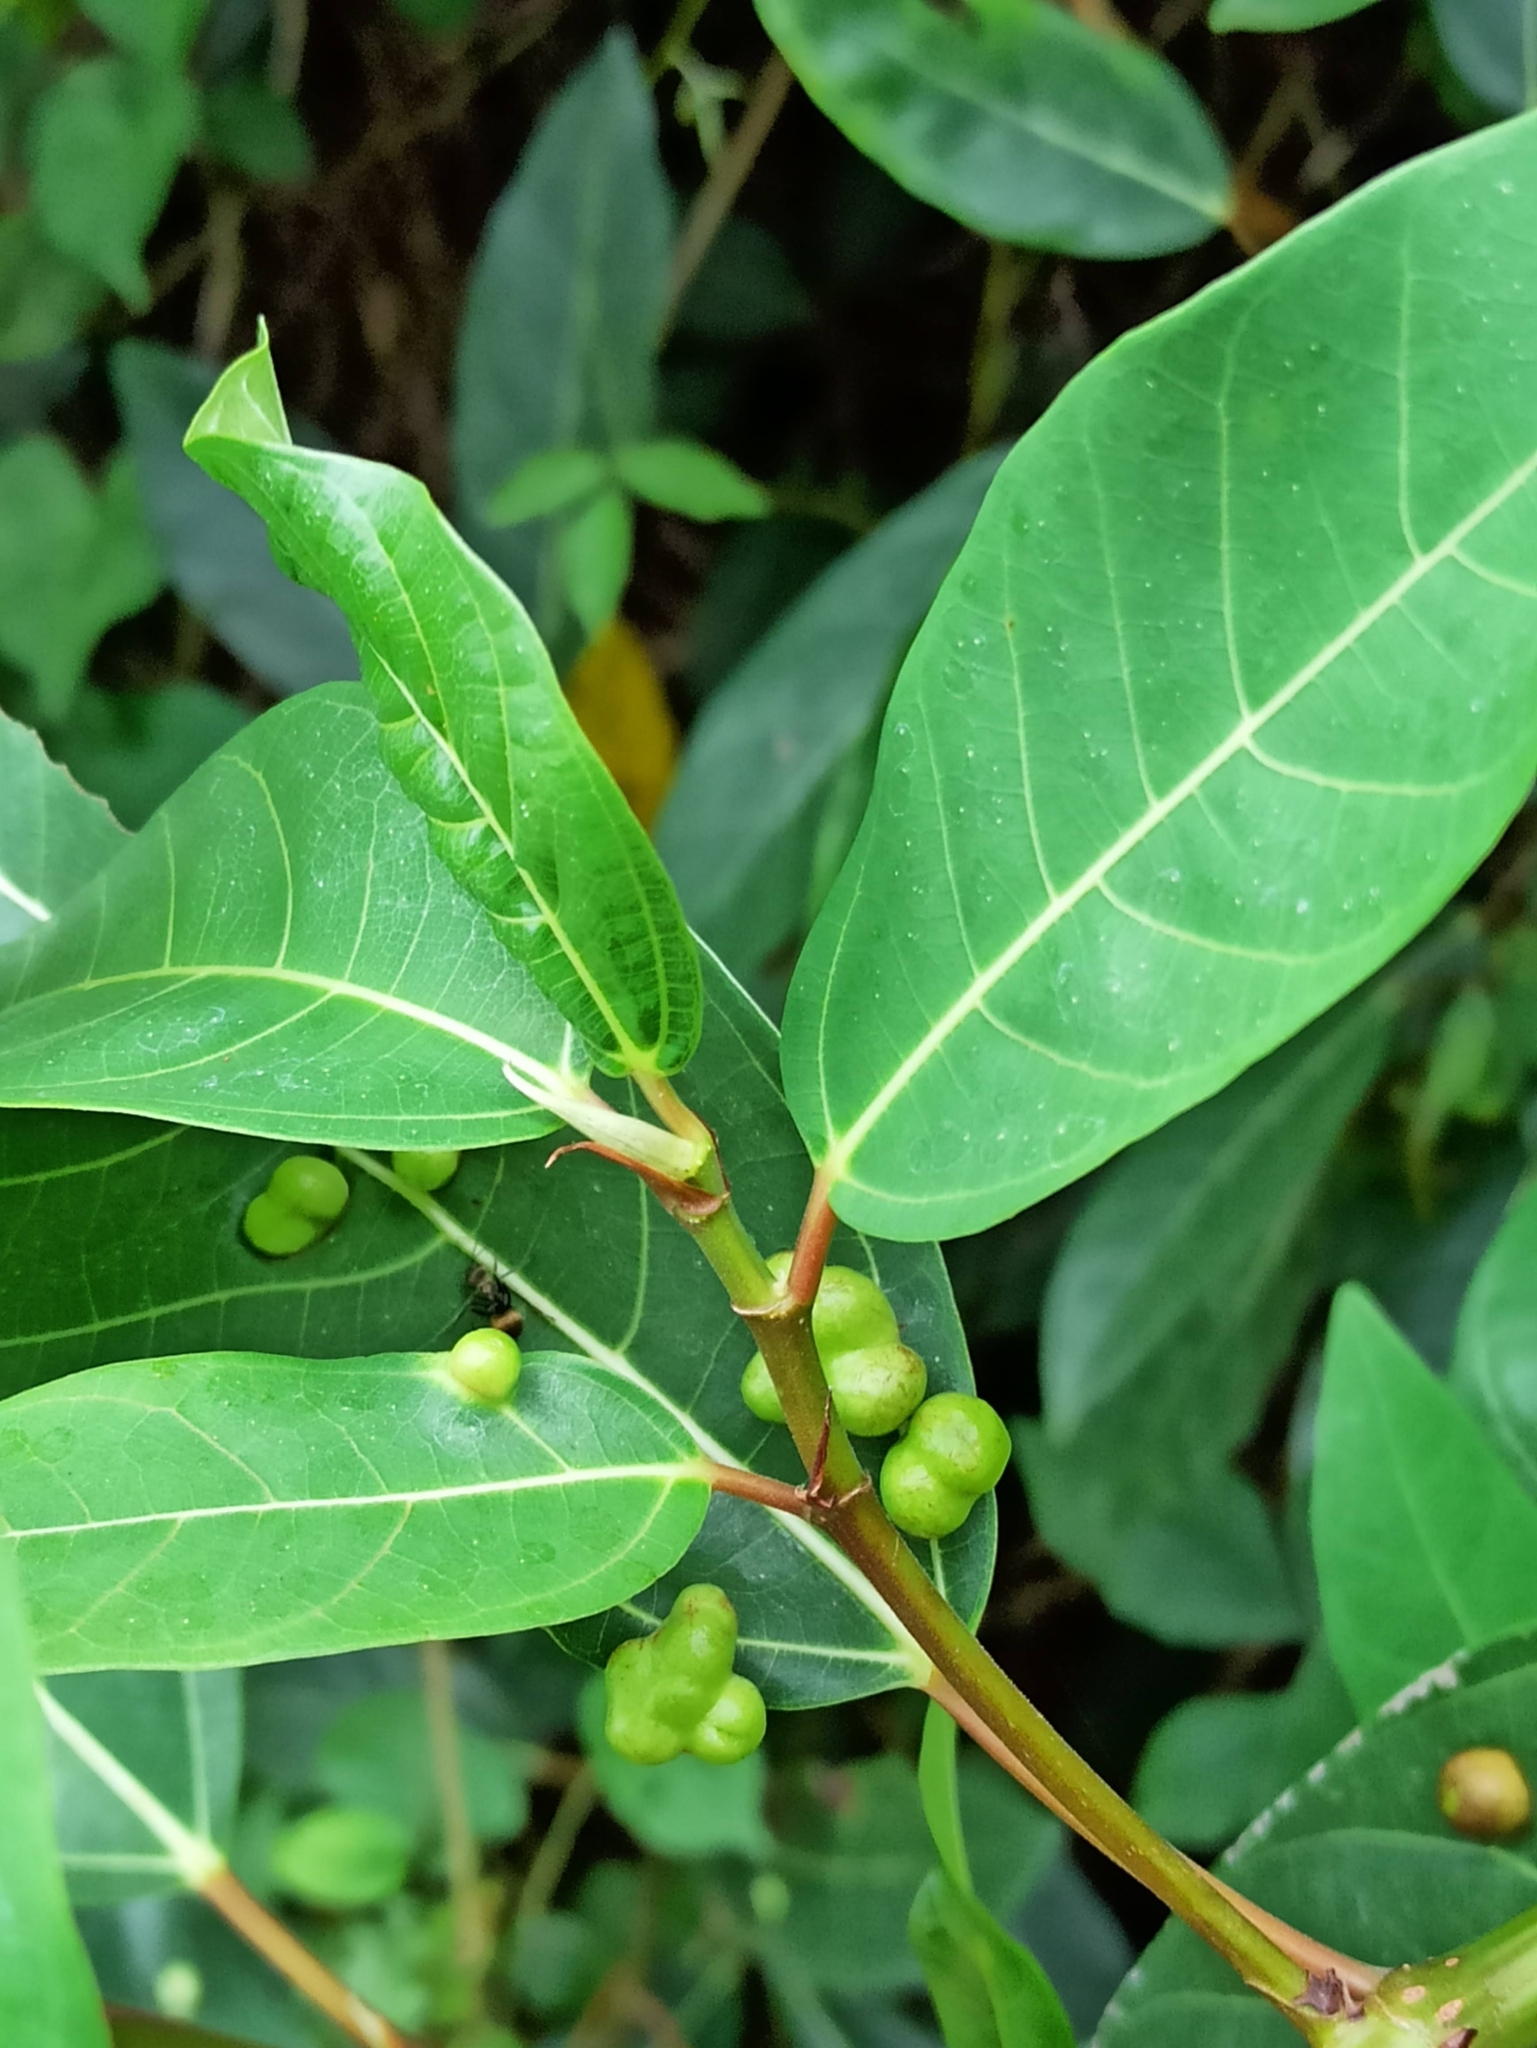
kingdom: Plantae
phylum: Tracheophyta
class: Magnoliopsida
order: Rosales
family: Moraceae
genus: Ficus
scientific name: Ficus racemosa
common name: Cluster fig
